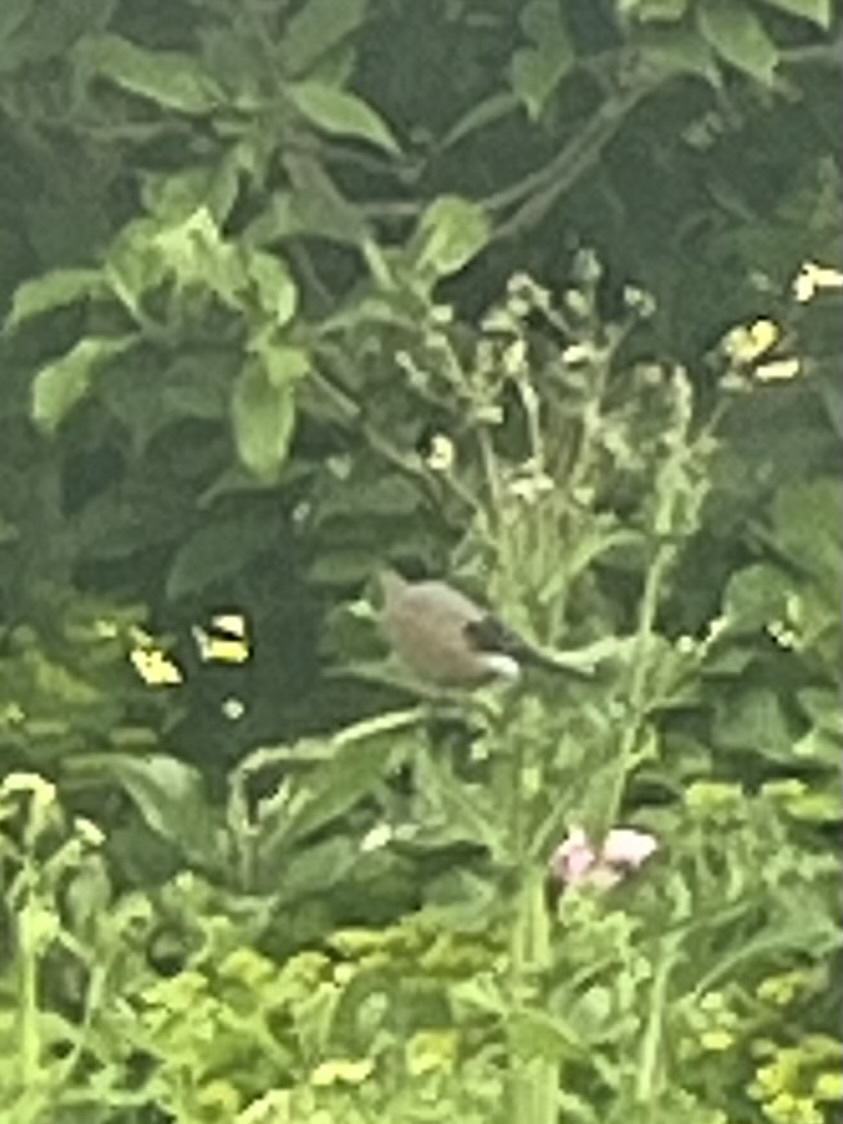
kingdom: Animalia
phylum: Chordata
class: Aves
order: Passeriformes
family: Fringillidae
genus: Pyrrhula
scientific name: Pyrrhula pyrrhula
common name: Eurasian bullfinch
